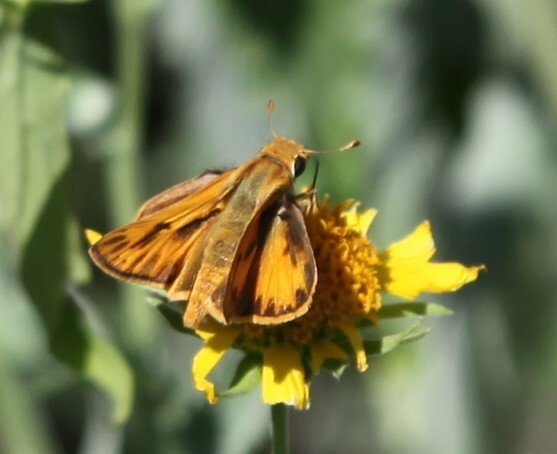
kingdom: Animalia
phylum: Arthropoda
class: Insecta
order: Lepidoptera
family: Hesperiidae
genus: Hylephila
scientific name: Hylephila phyleus
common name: Fiery skipper
